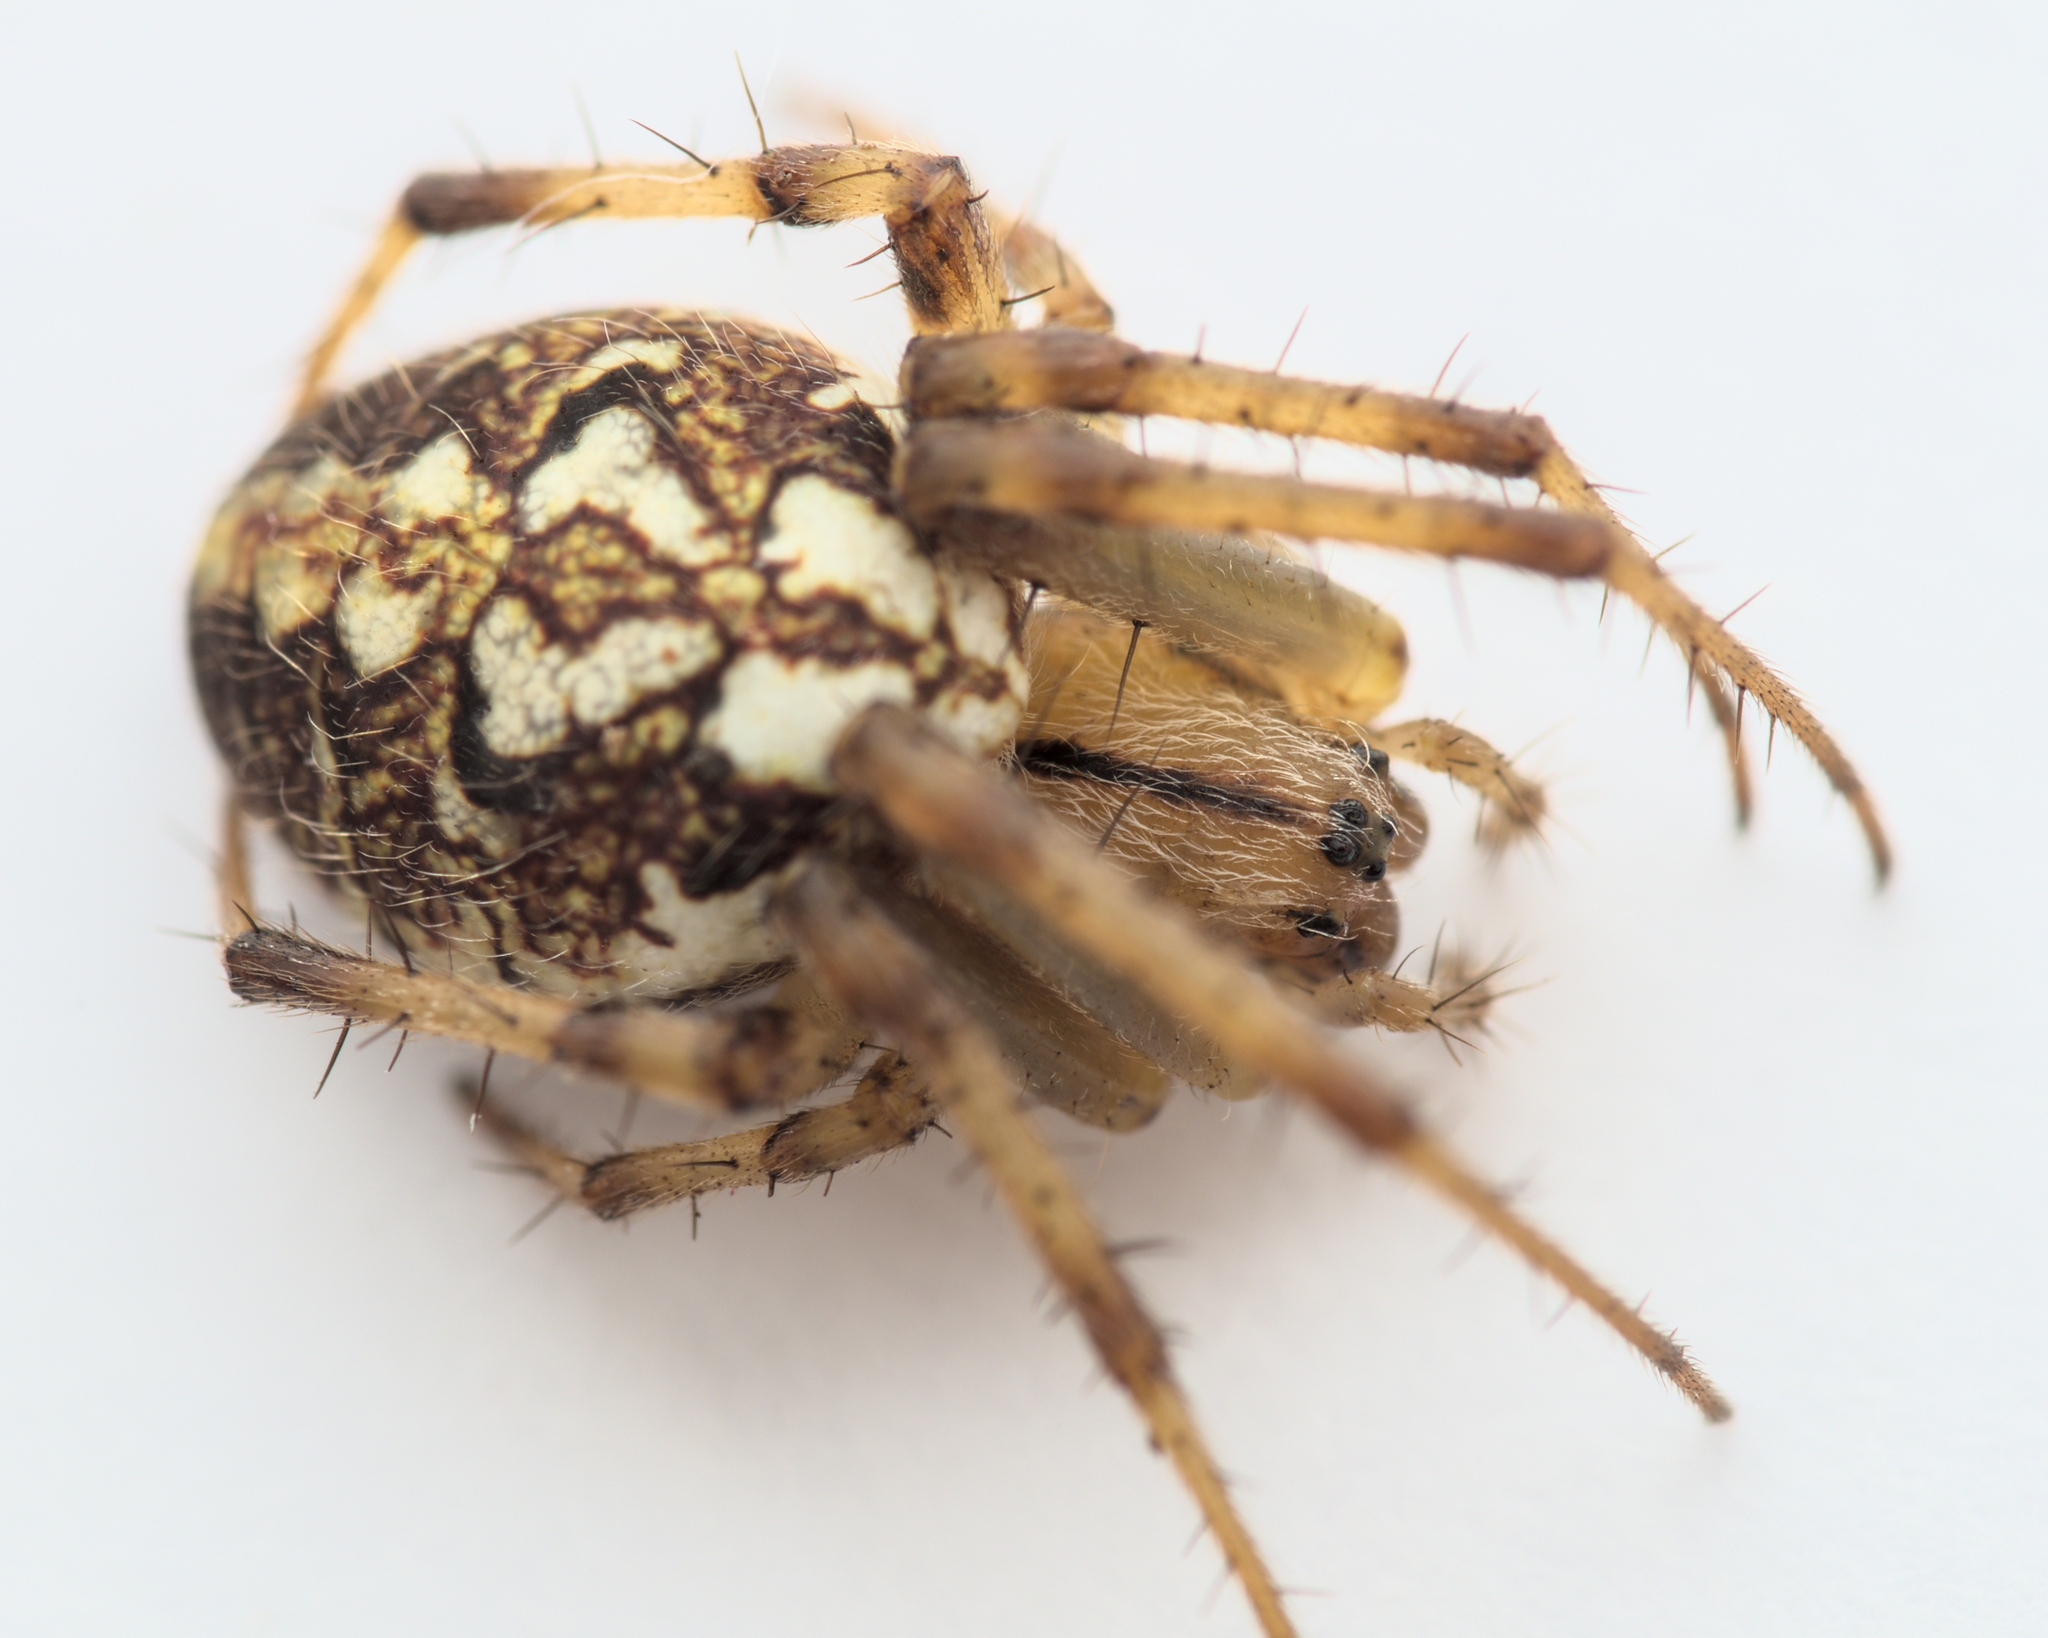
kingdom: Animalia
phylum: Arthropoda
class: Arachnida
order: Araneae
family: Araneidae
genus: Neoscona
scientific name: Neoscona adianta
